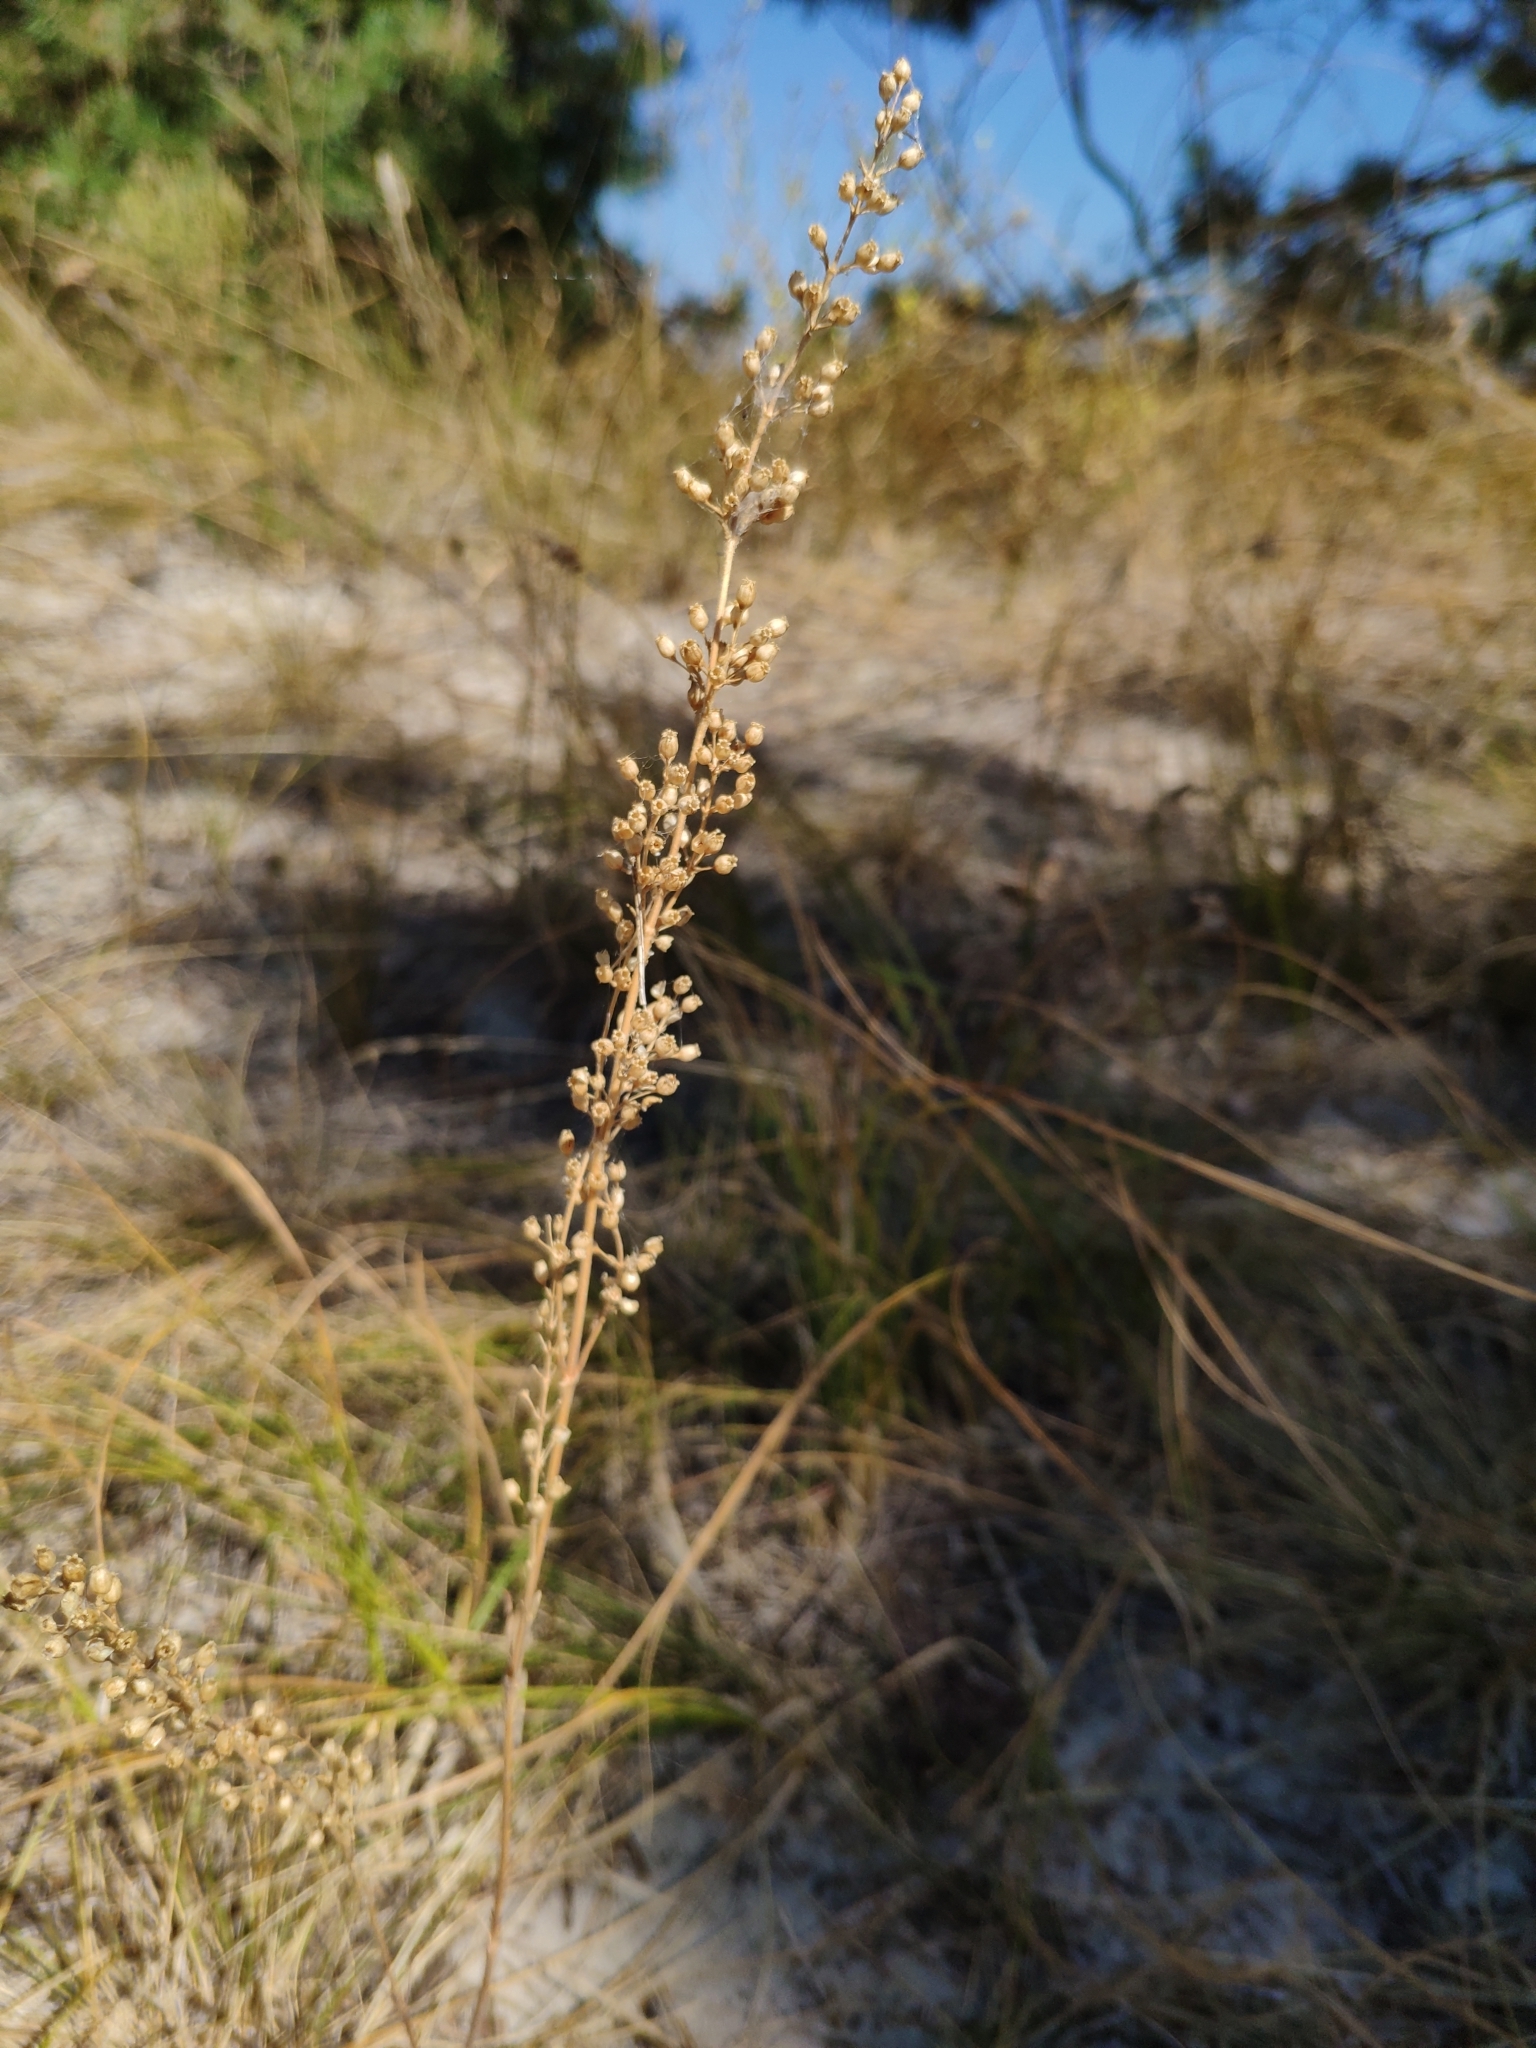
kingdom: Plantae
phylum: Tracheophyta
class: Magnoliopsida
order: Caryophyllales
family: Caryophyllaceae
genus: Silene
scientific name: Silene borysthenica
